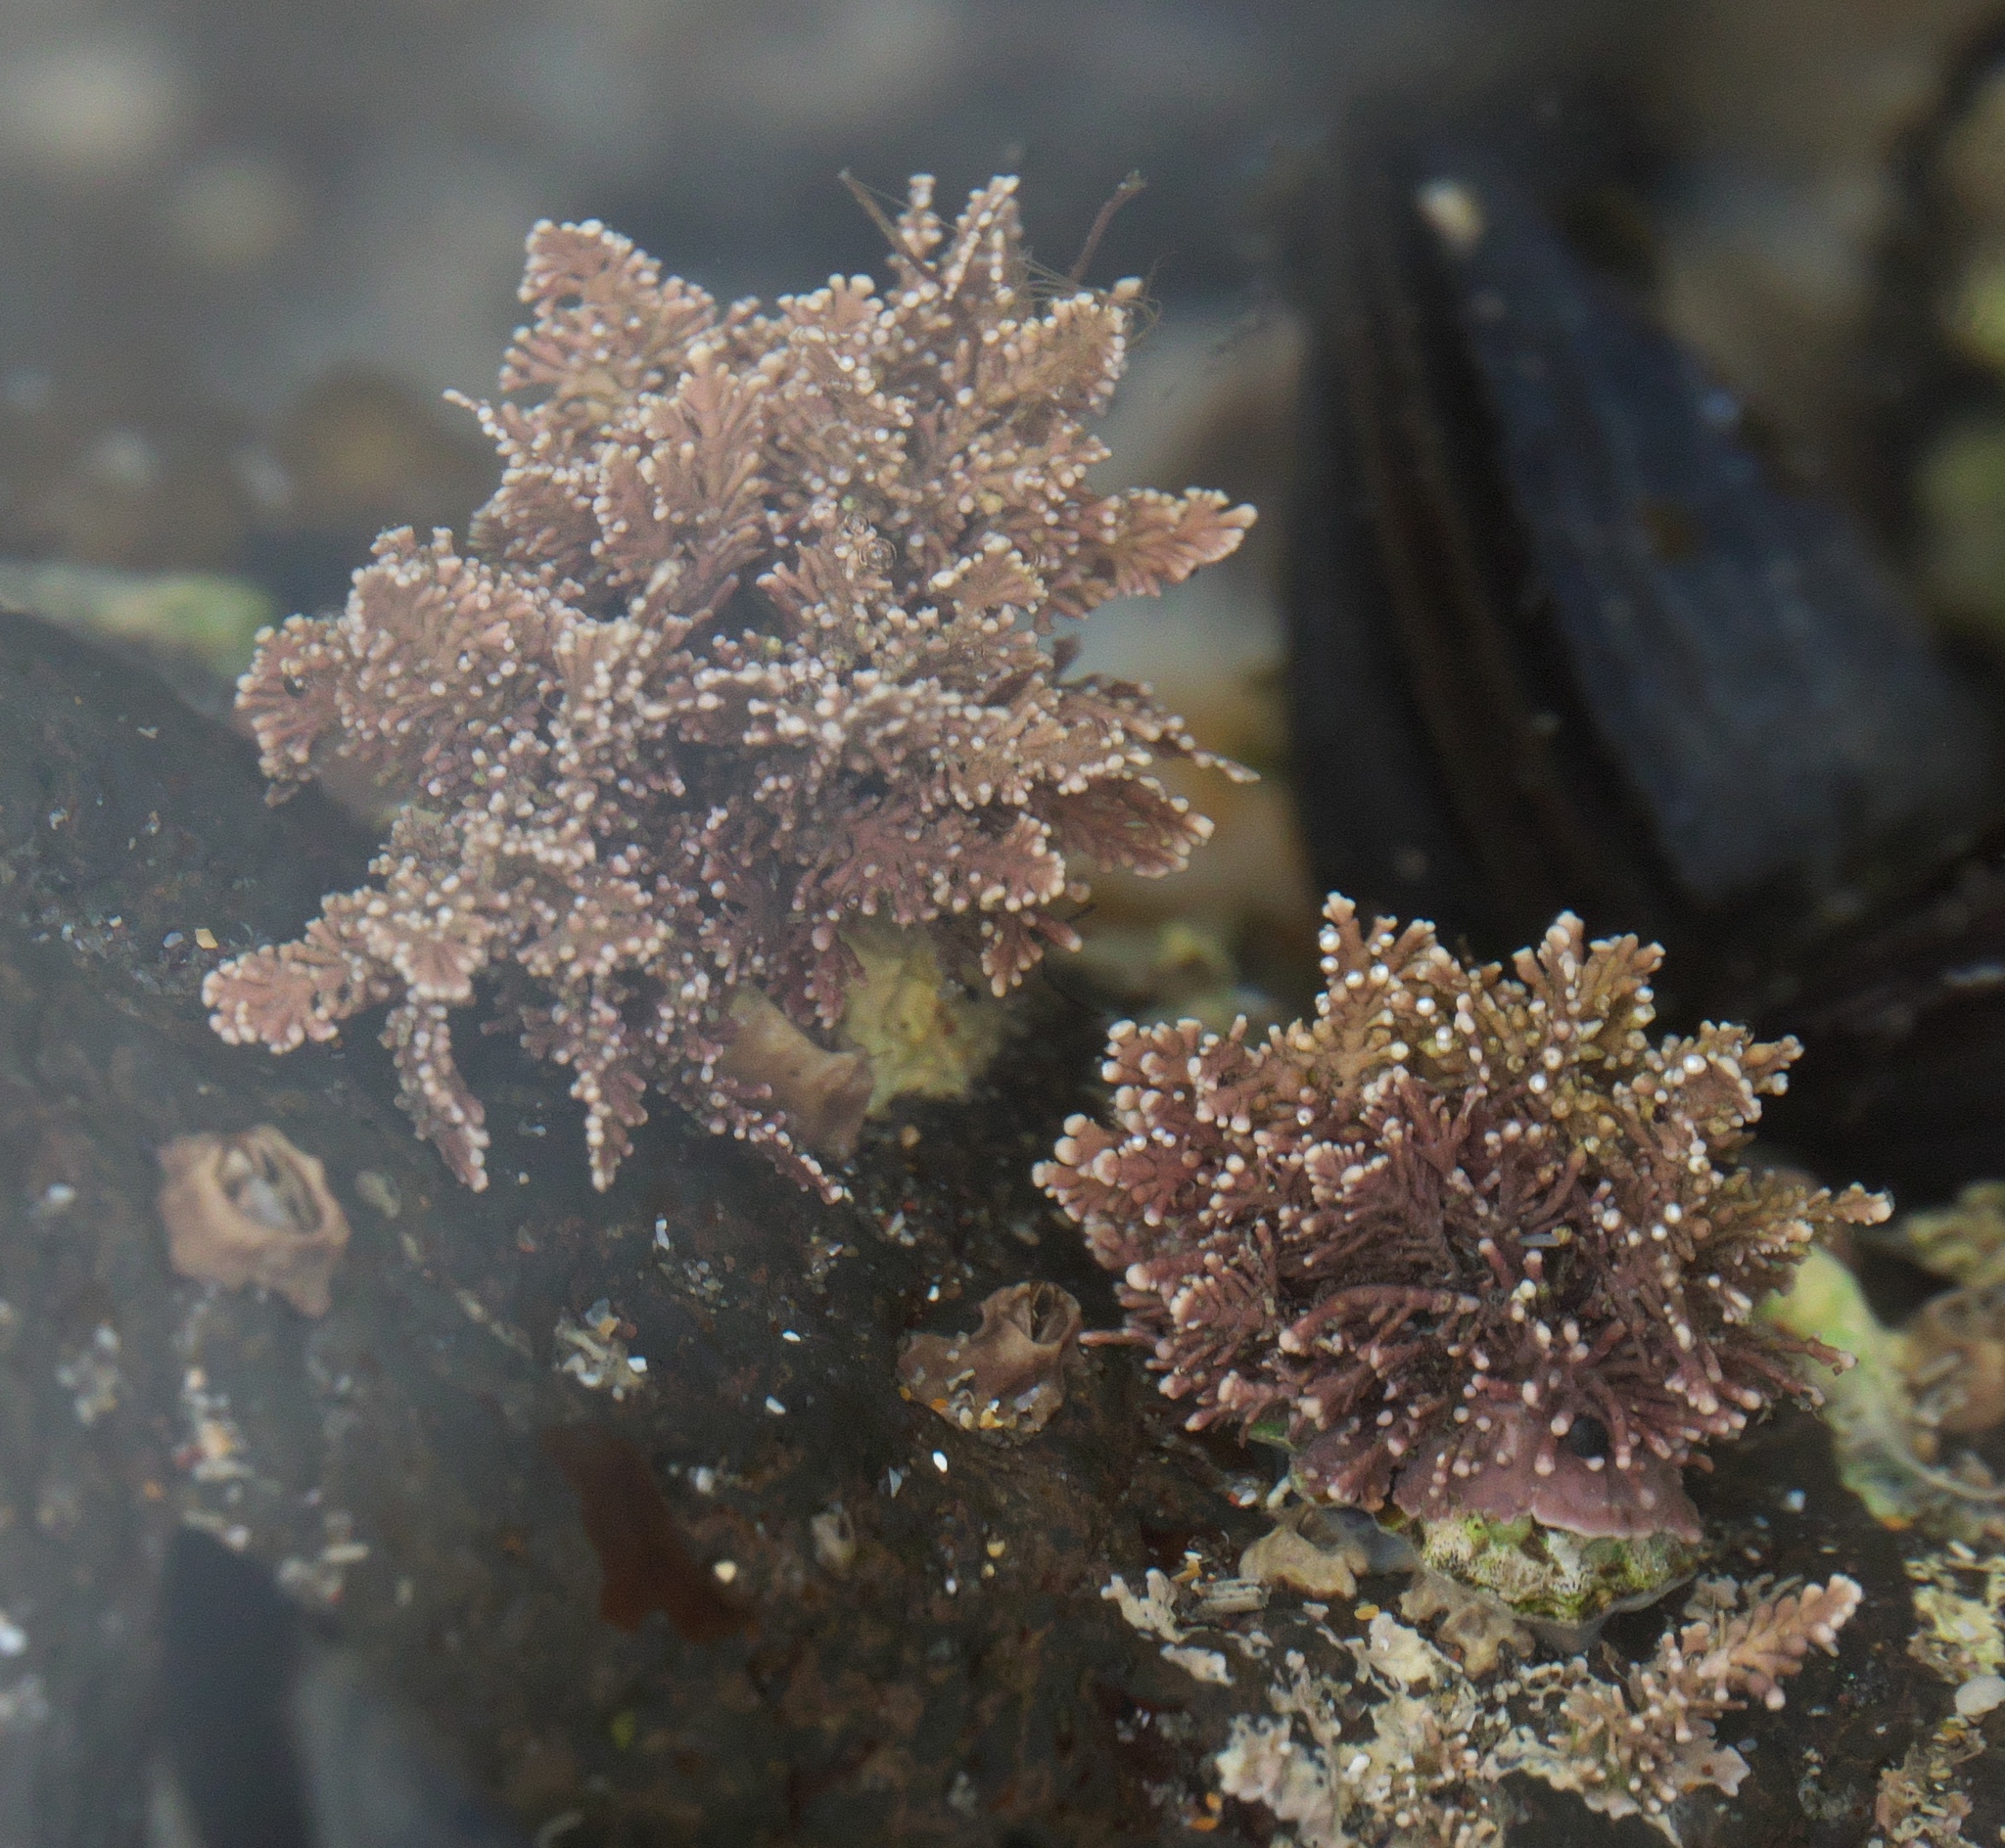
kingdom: Plantae
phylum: Rhodophyta
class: Florideophyceae
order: Corallinales
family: Corallinaceae
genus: Corallina
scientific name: Corallina officinalis
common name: Coral weed
